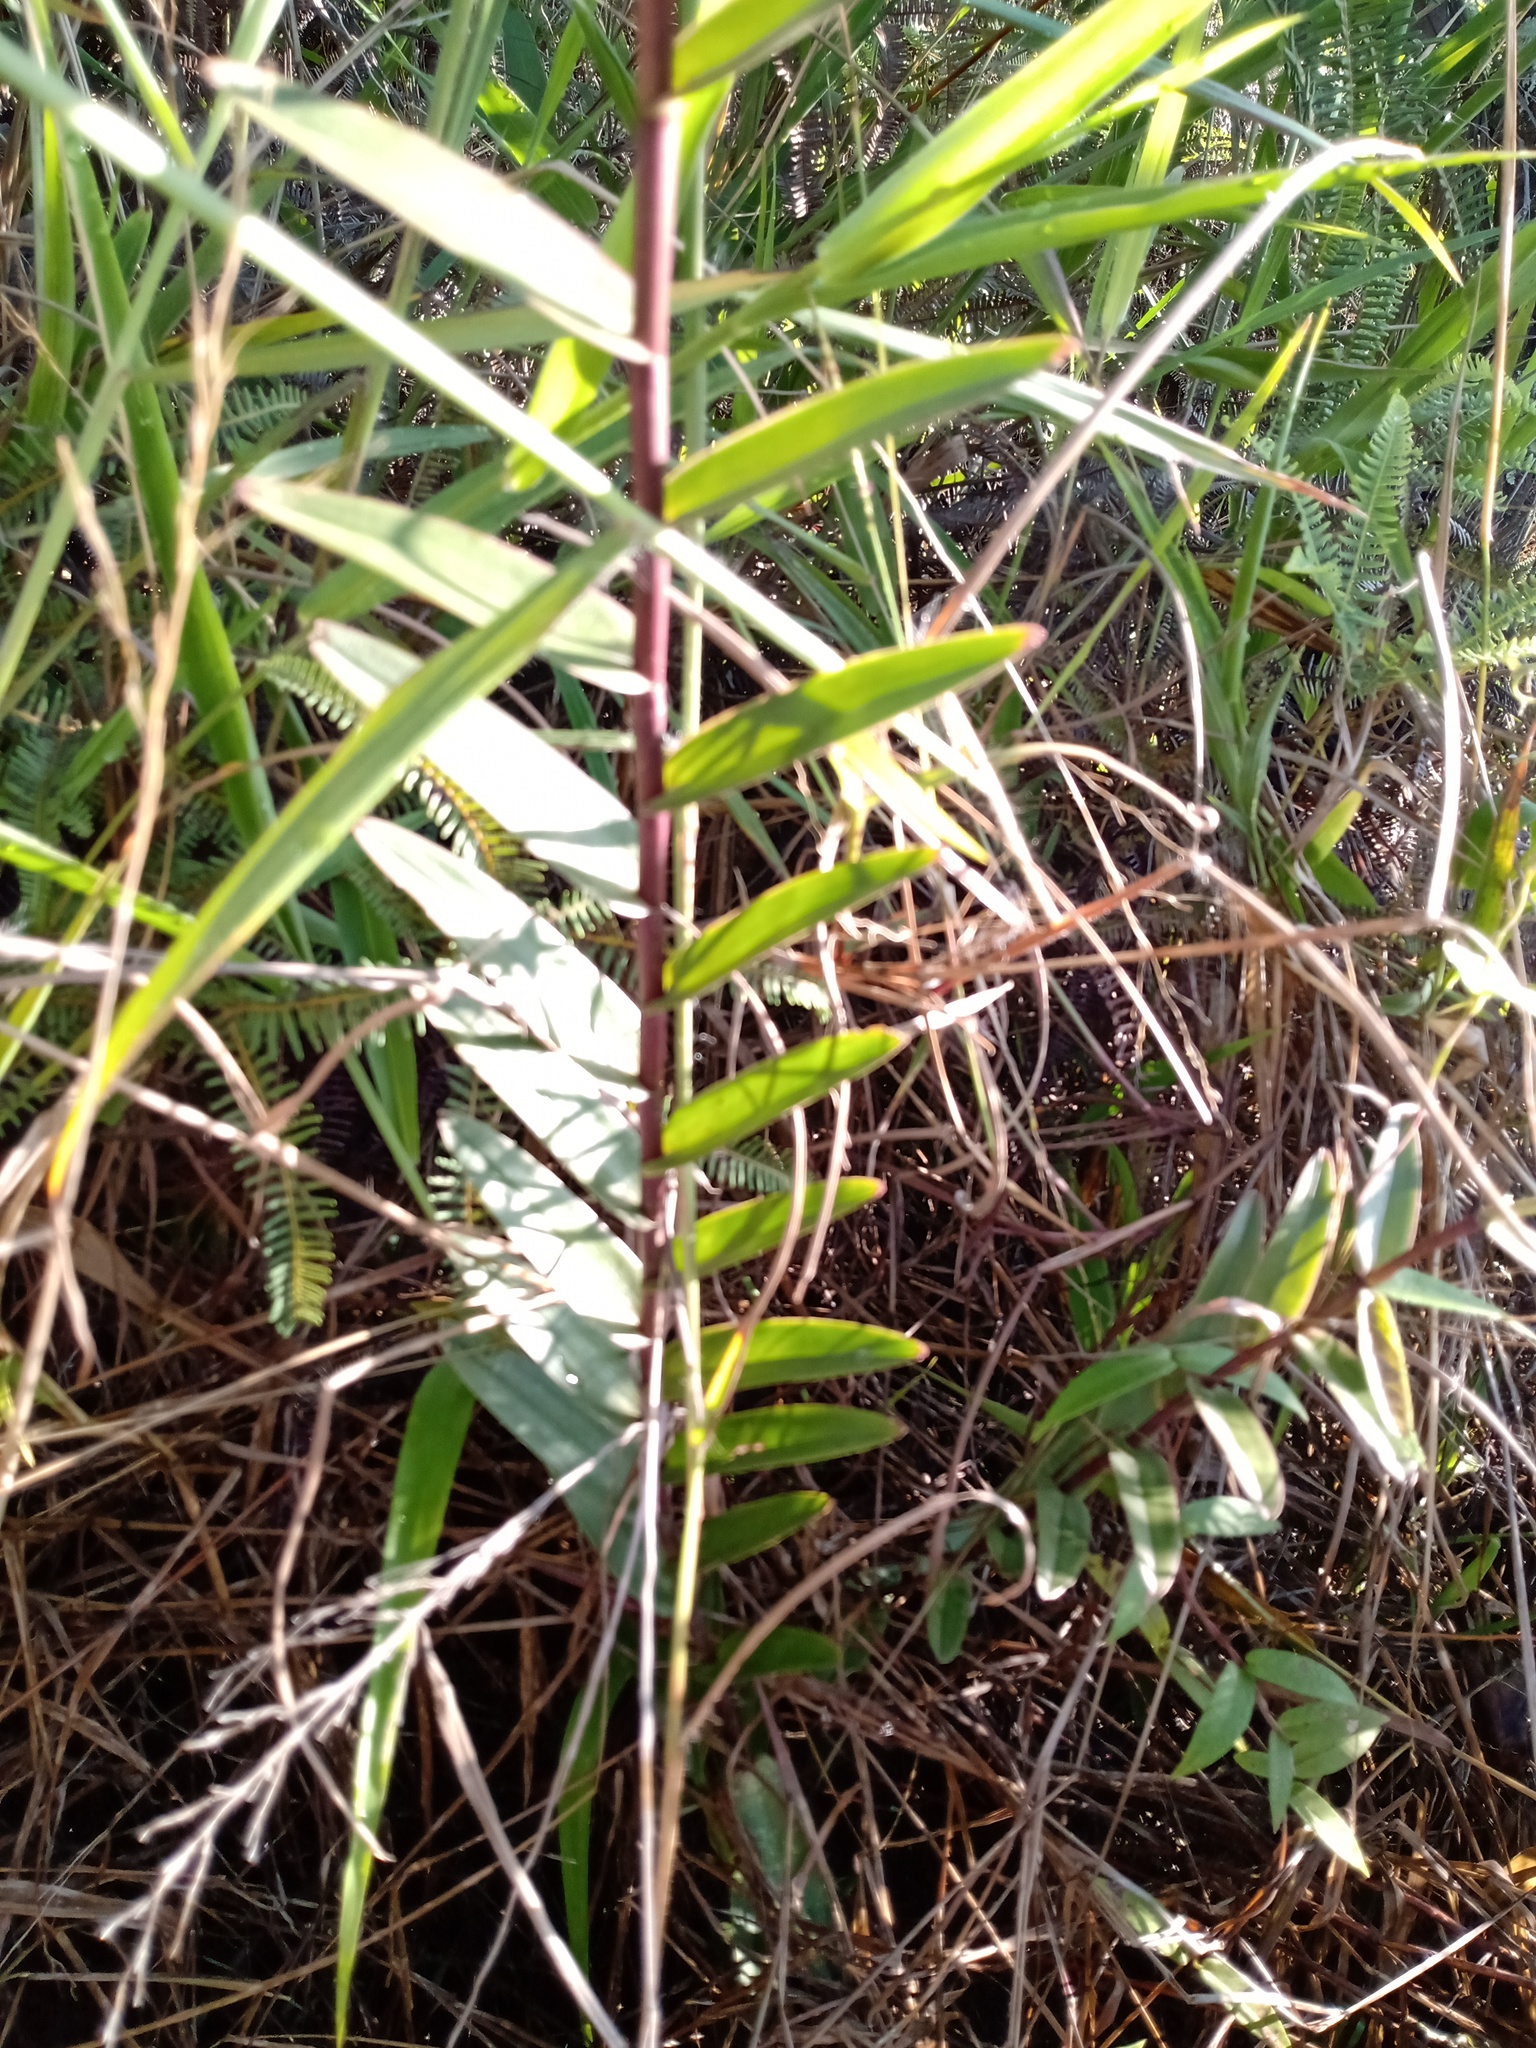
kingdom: Plantae
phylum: Tracheophyta
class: Liliopsida
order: Asparagales
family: Orchidaceae
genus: Epidendrum
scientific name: Epidendrum melinanthum
